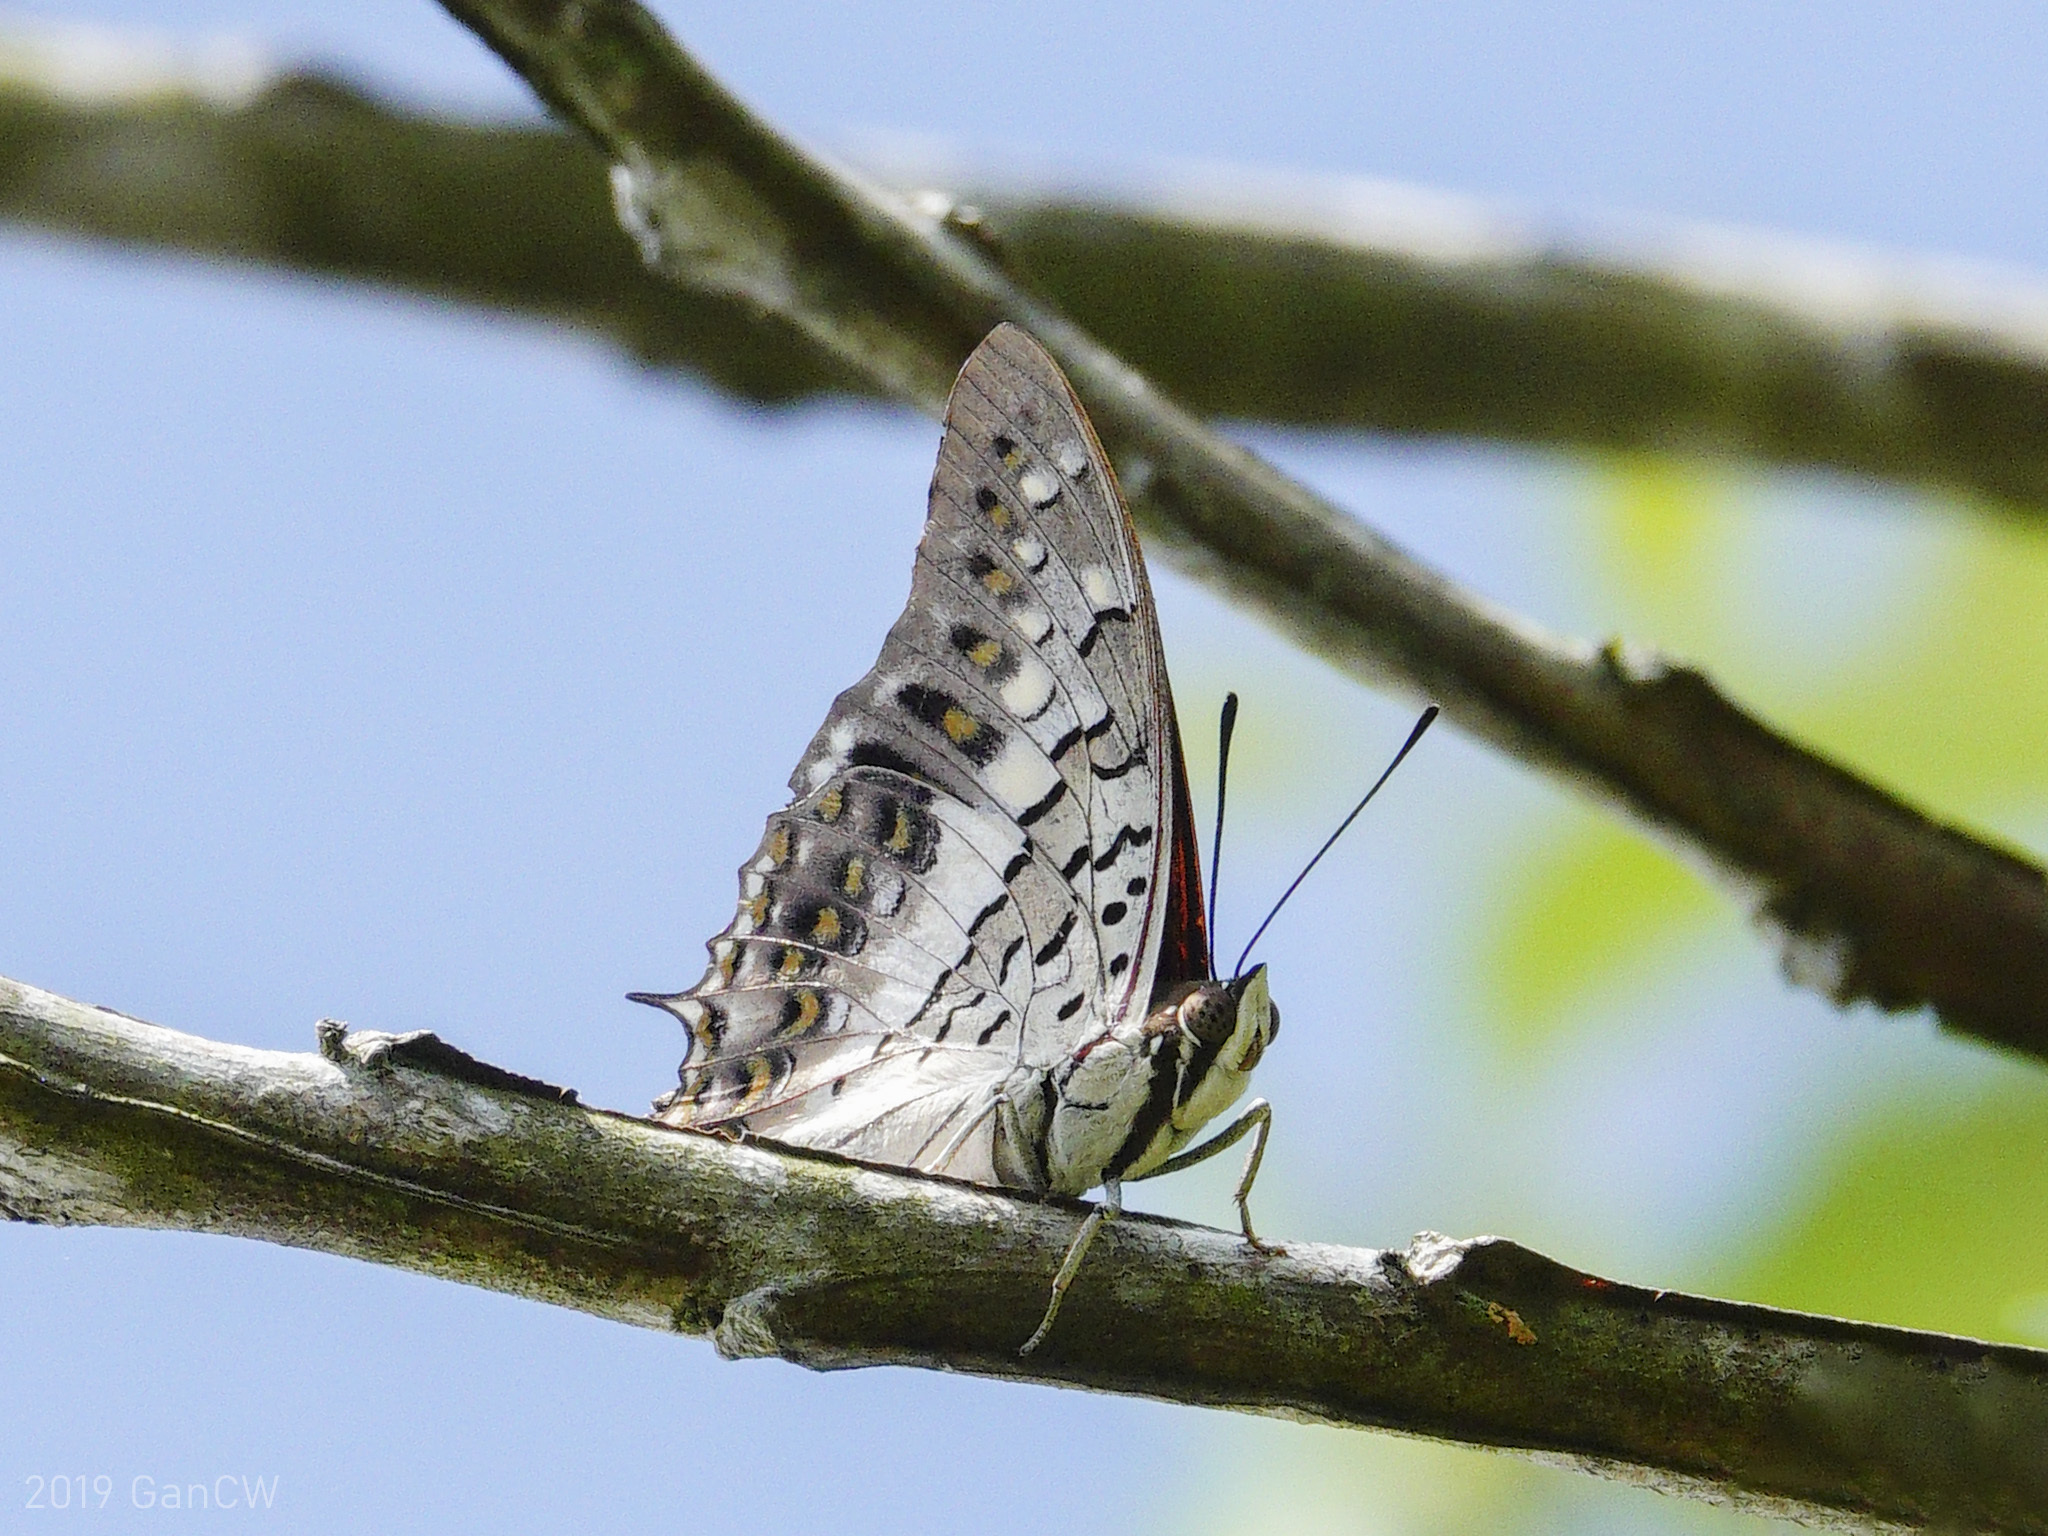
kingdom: Animalia
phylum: Arthropoda
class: Insecta
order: Lepidoptera
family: Nymphalidae
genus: Charaxes
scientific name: Charaxes solon
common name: Black rajah
